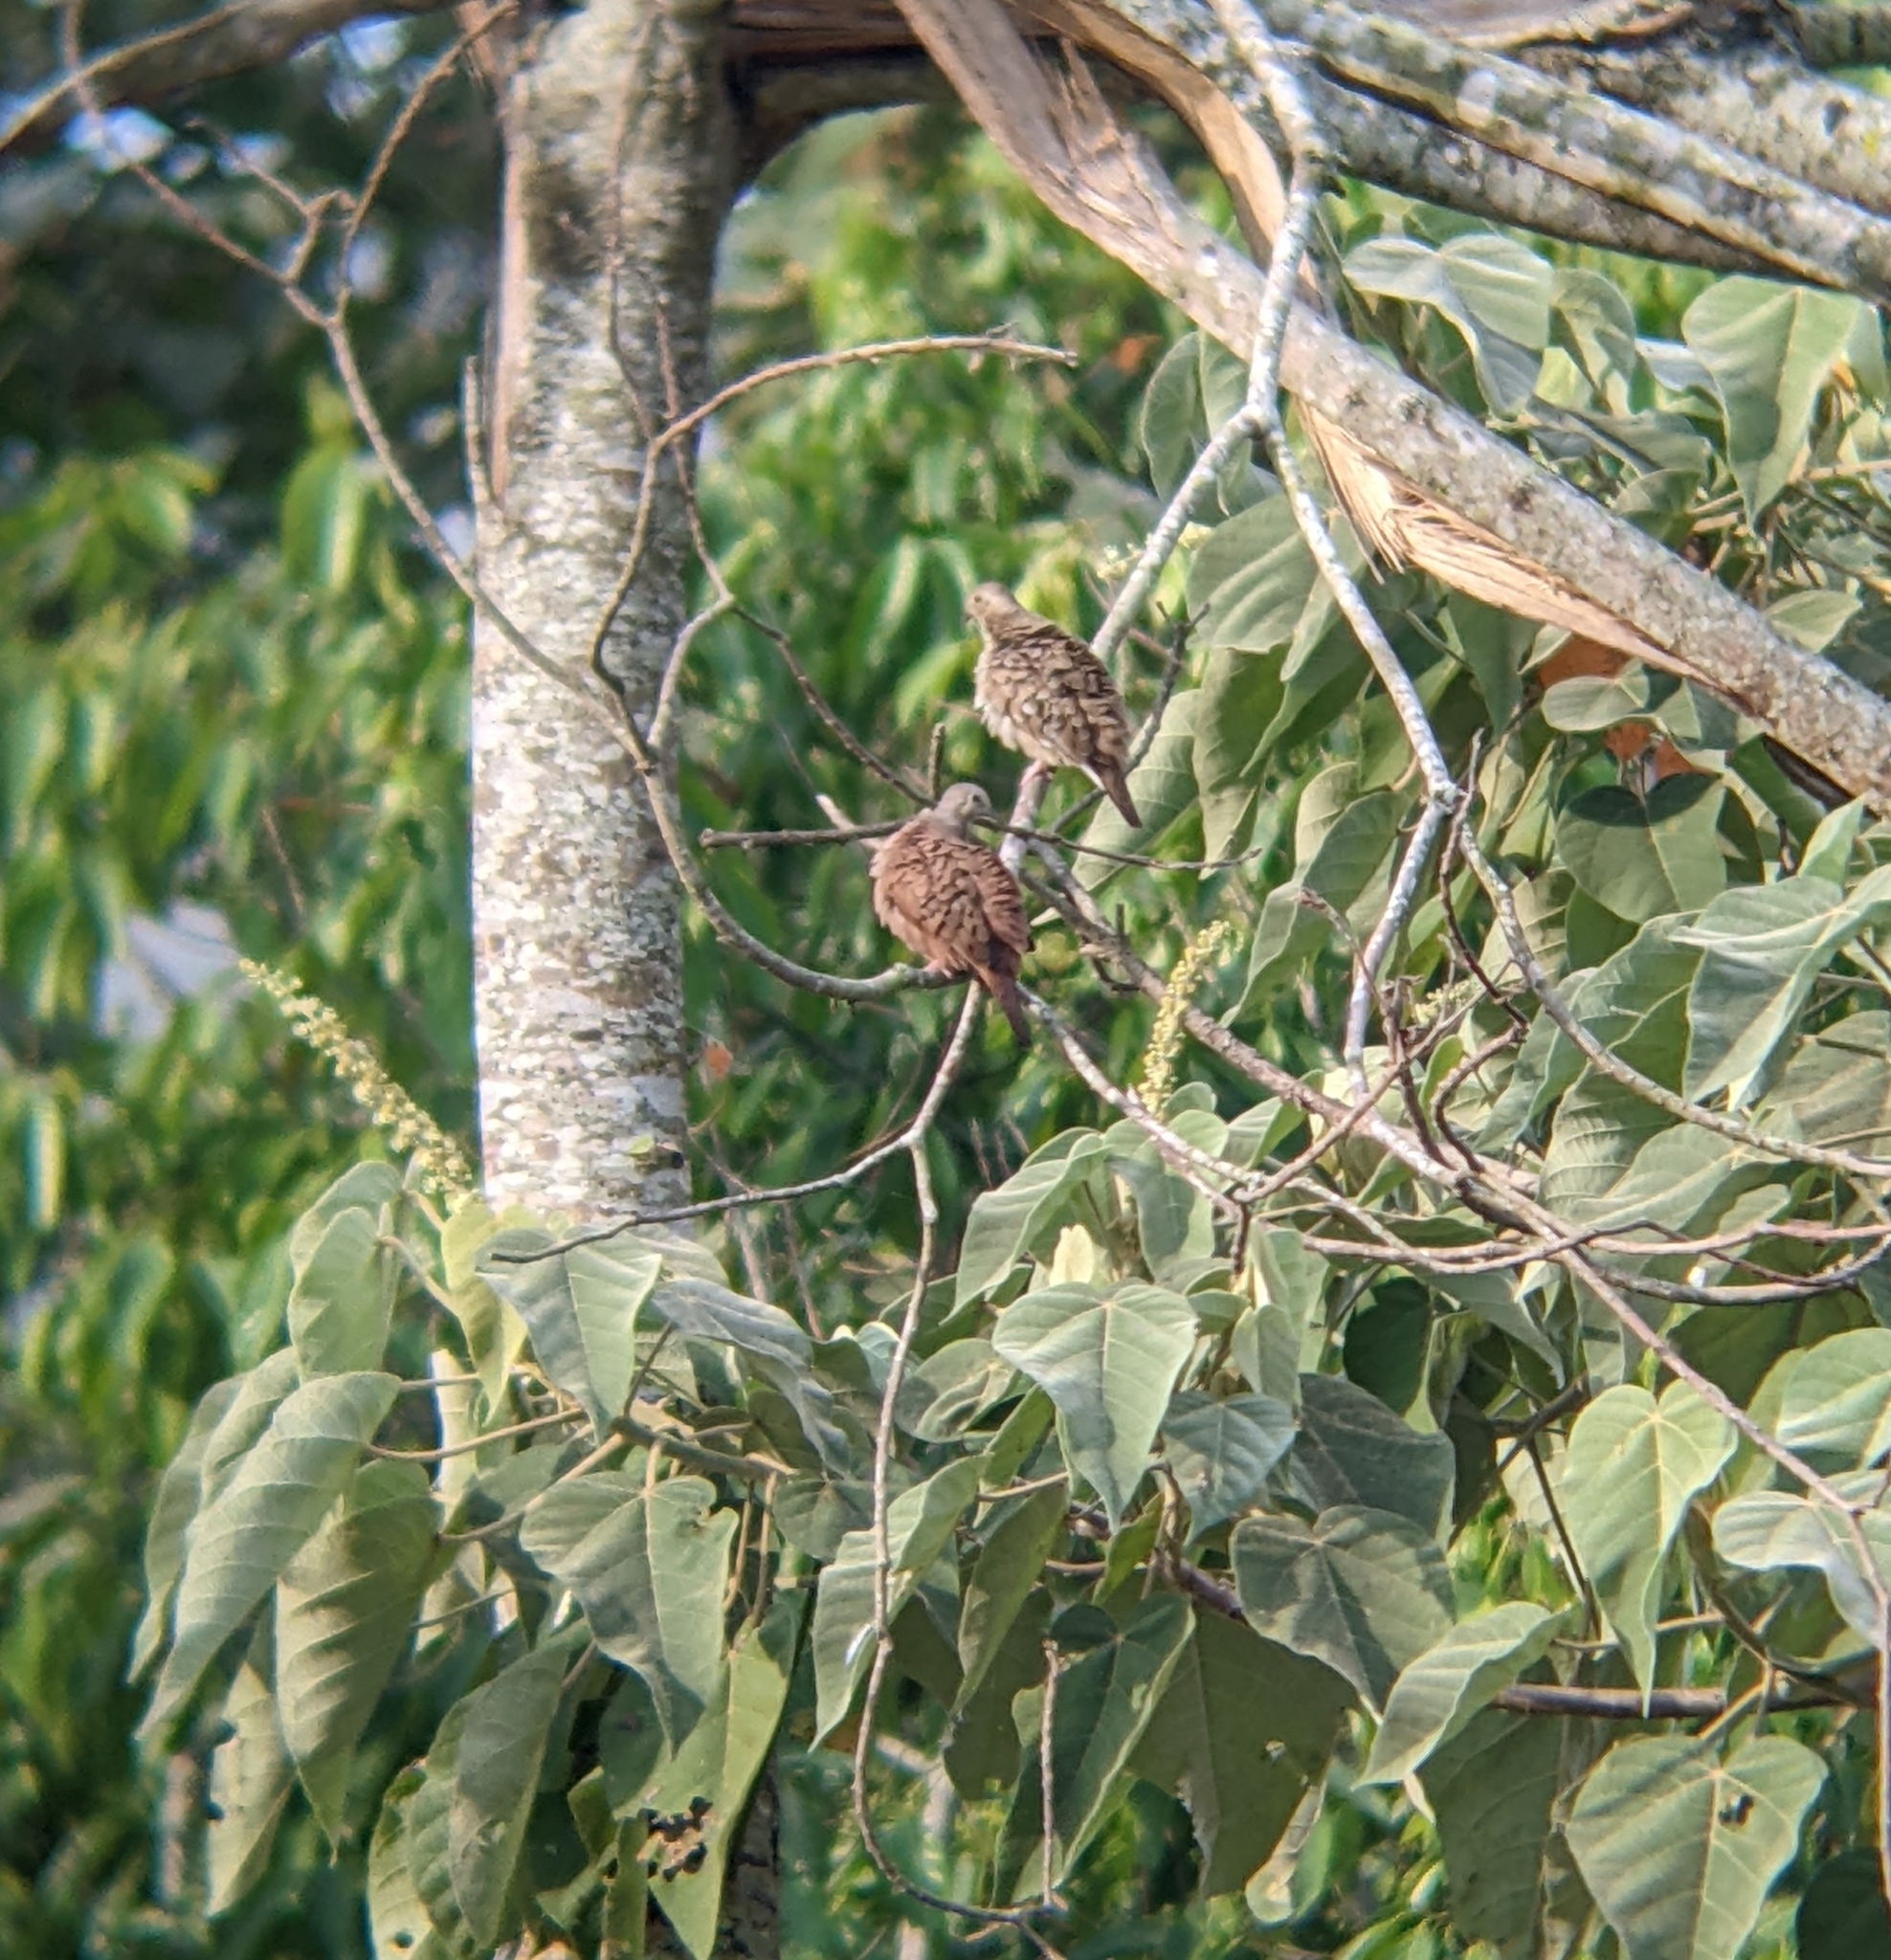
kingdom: Animalia
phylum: Chordata
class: Aves
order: Columbiformes
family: Columbidae
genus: Columbina
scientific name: Columbina talpacoti
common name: Ruddy ground dove
